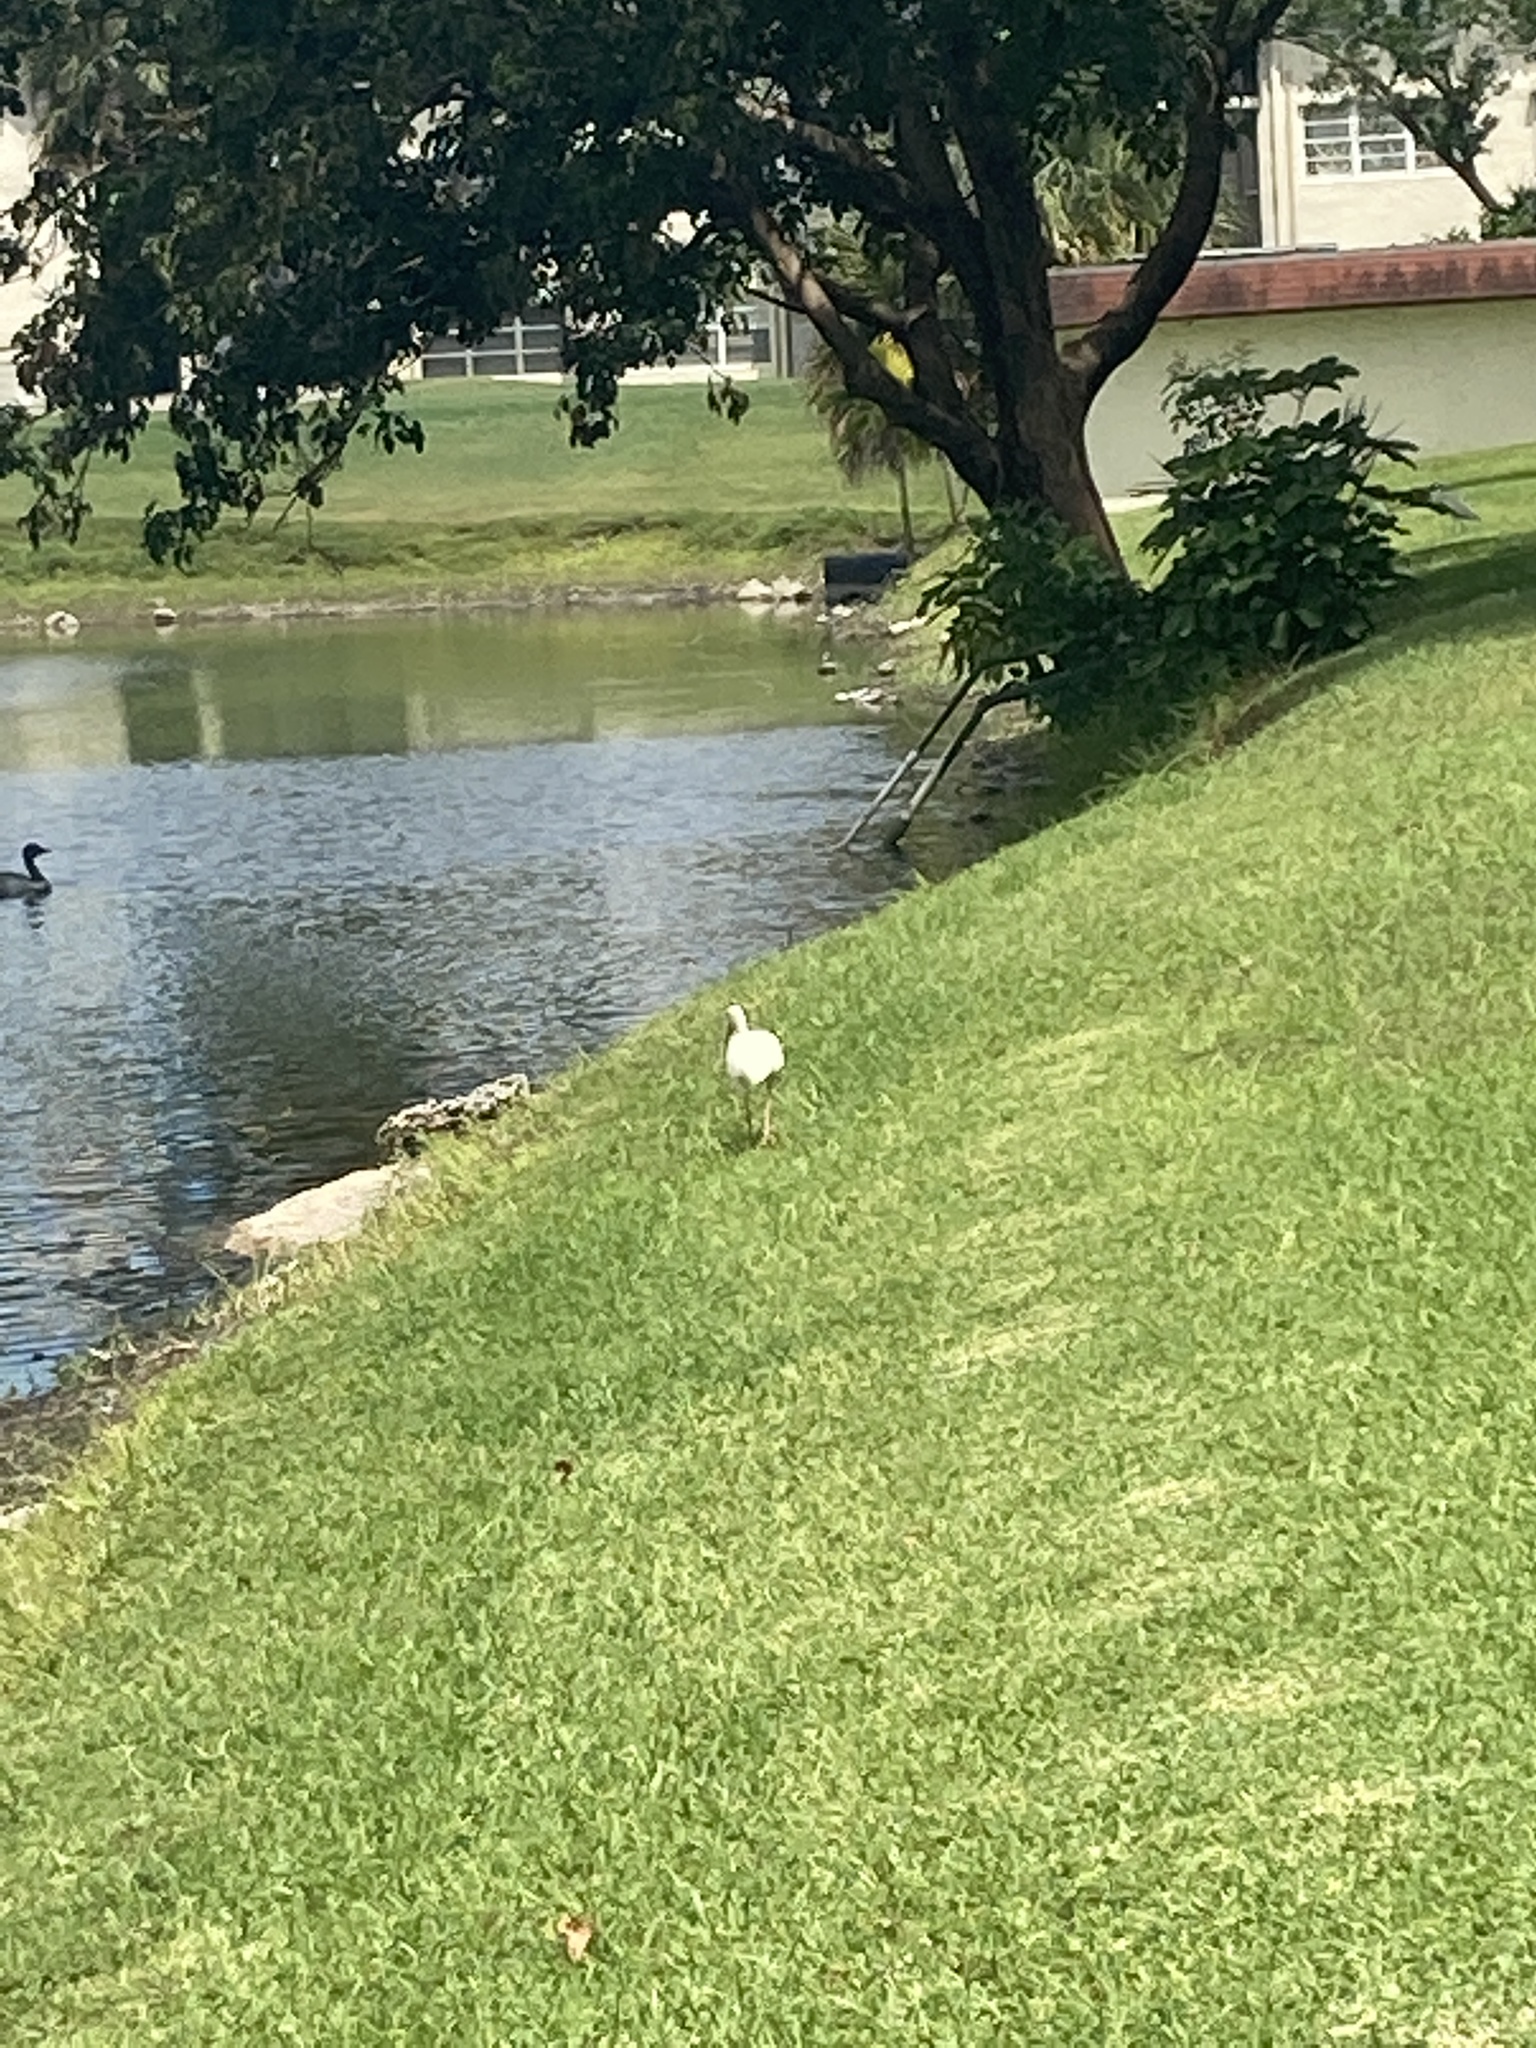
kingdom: Animalia
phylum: Chordata
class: Aves
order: Pelecaniformes
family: Threskiornithidae
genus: Eudocimus
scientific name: Eudocimus albus
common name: White ibis
